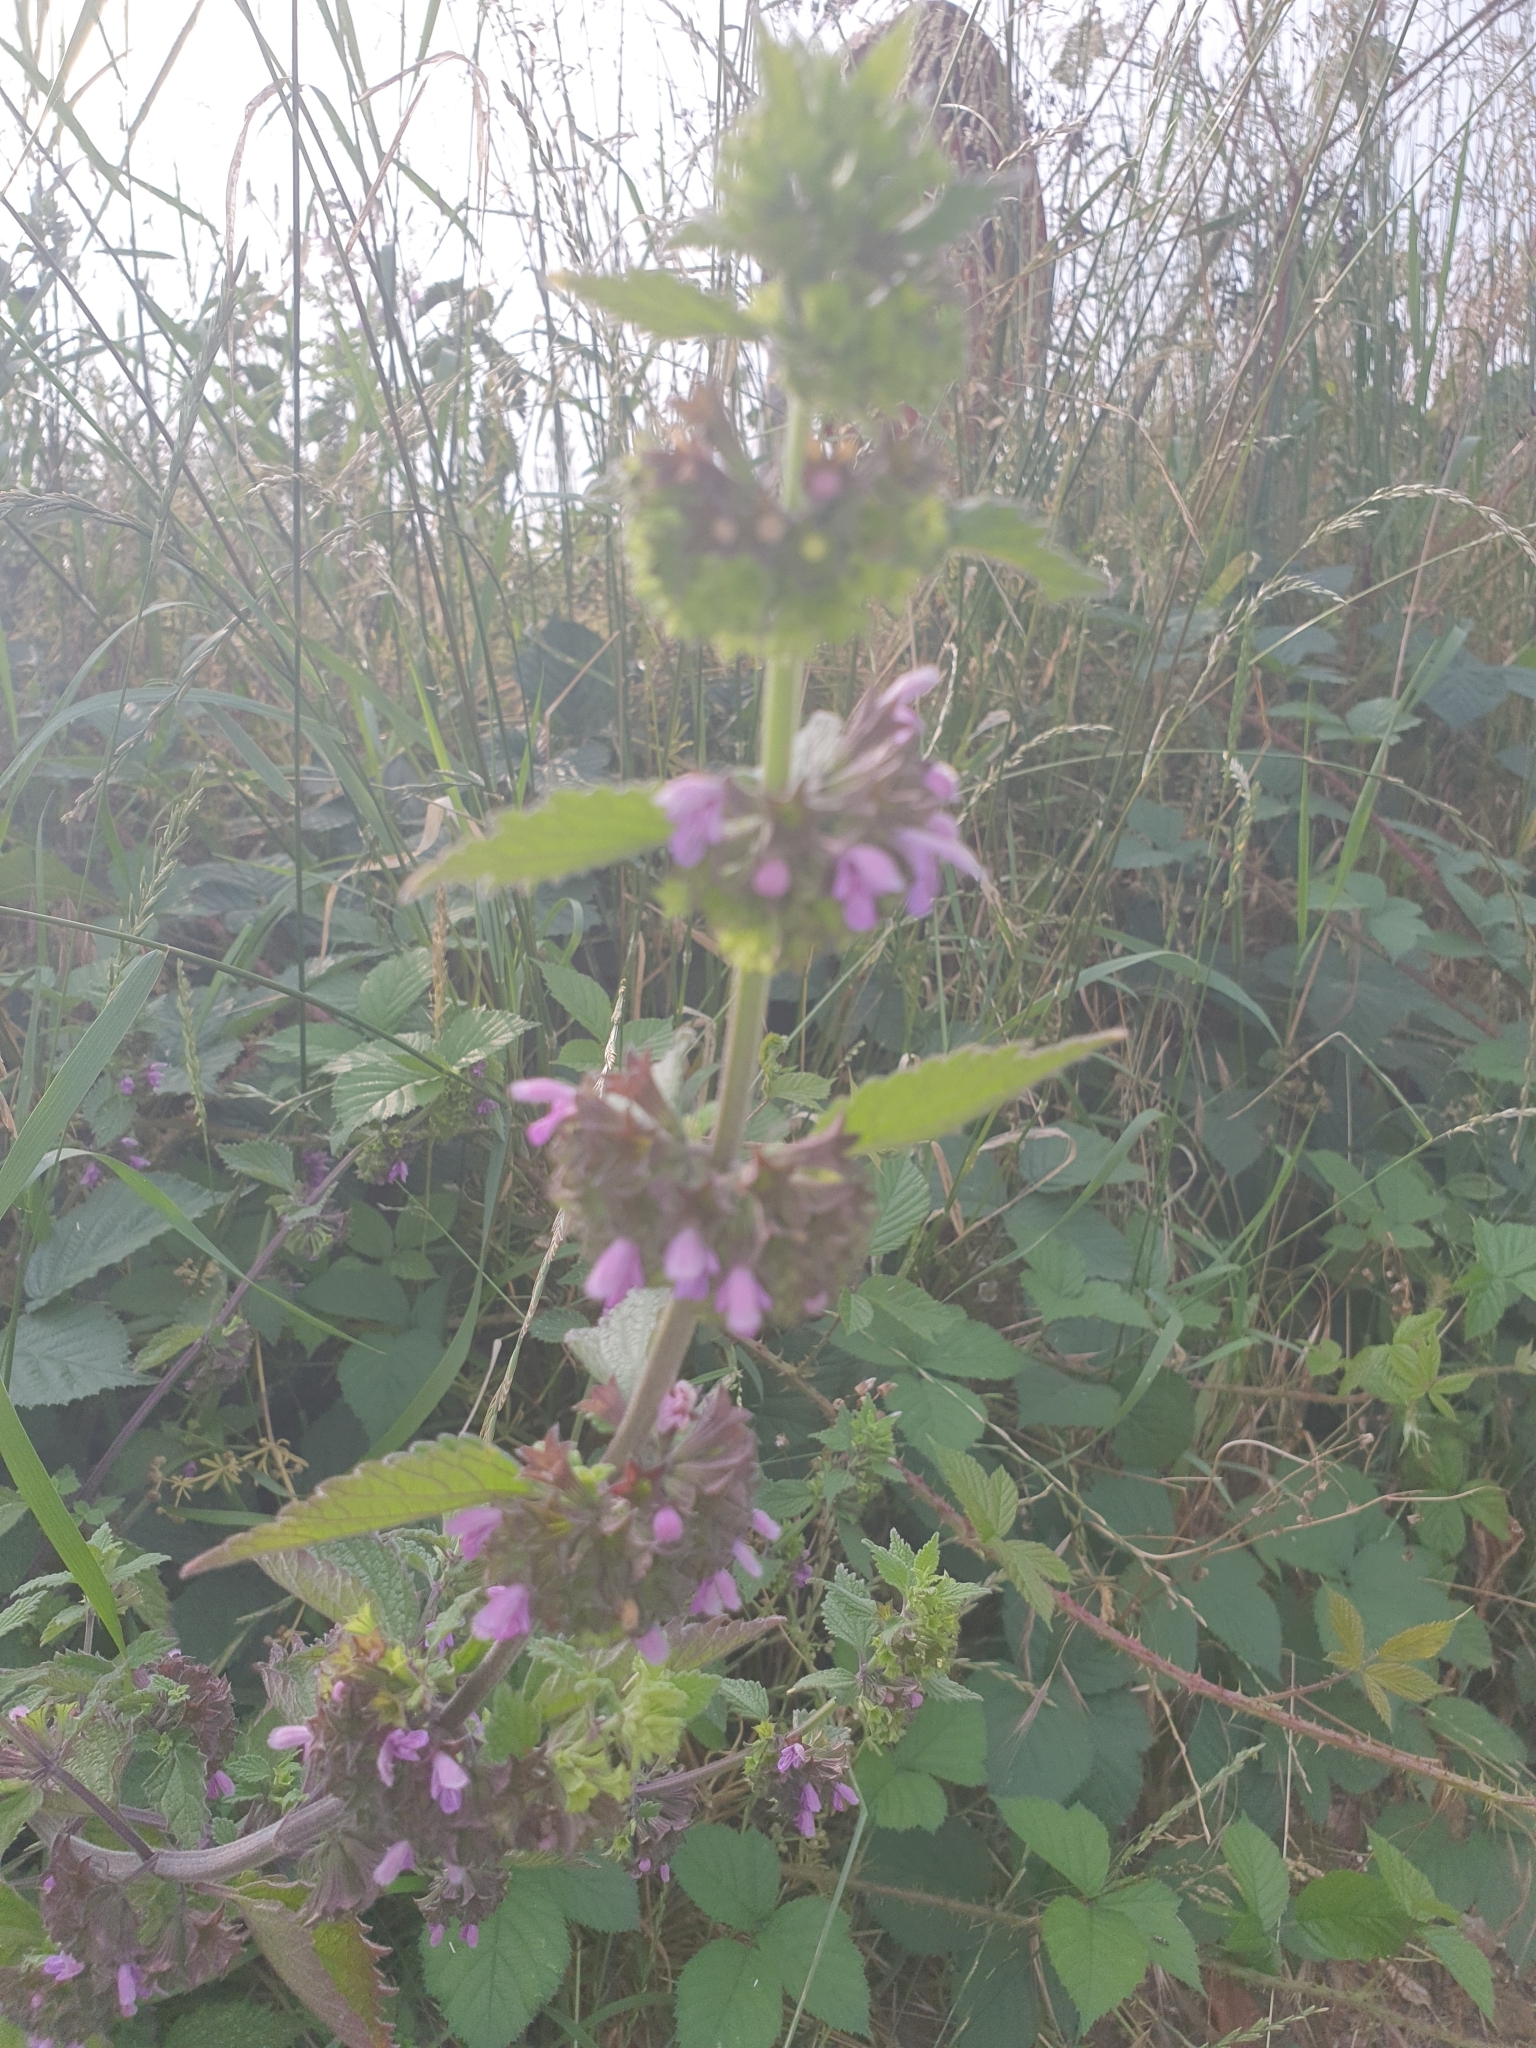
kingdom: Plantae
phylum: Tracheophyta
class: Magnoliopsida
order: Lamiales
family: Lamiaceae
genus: Ballota
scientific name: Ballota nigra
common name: Black horehound
